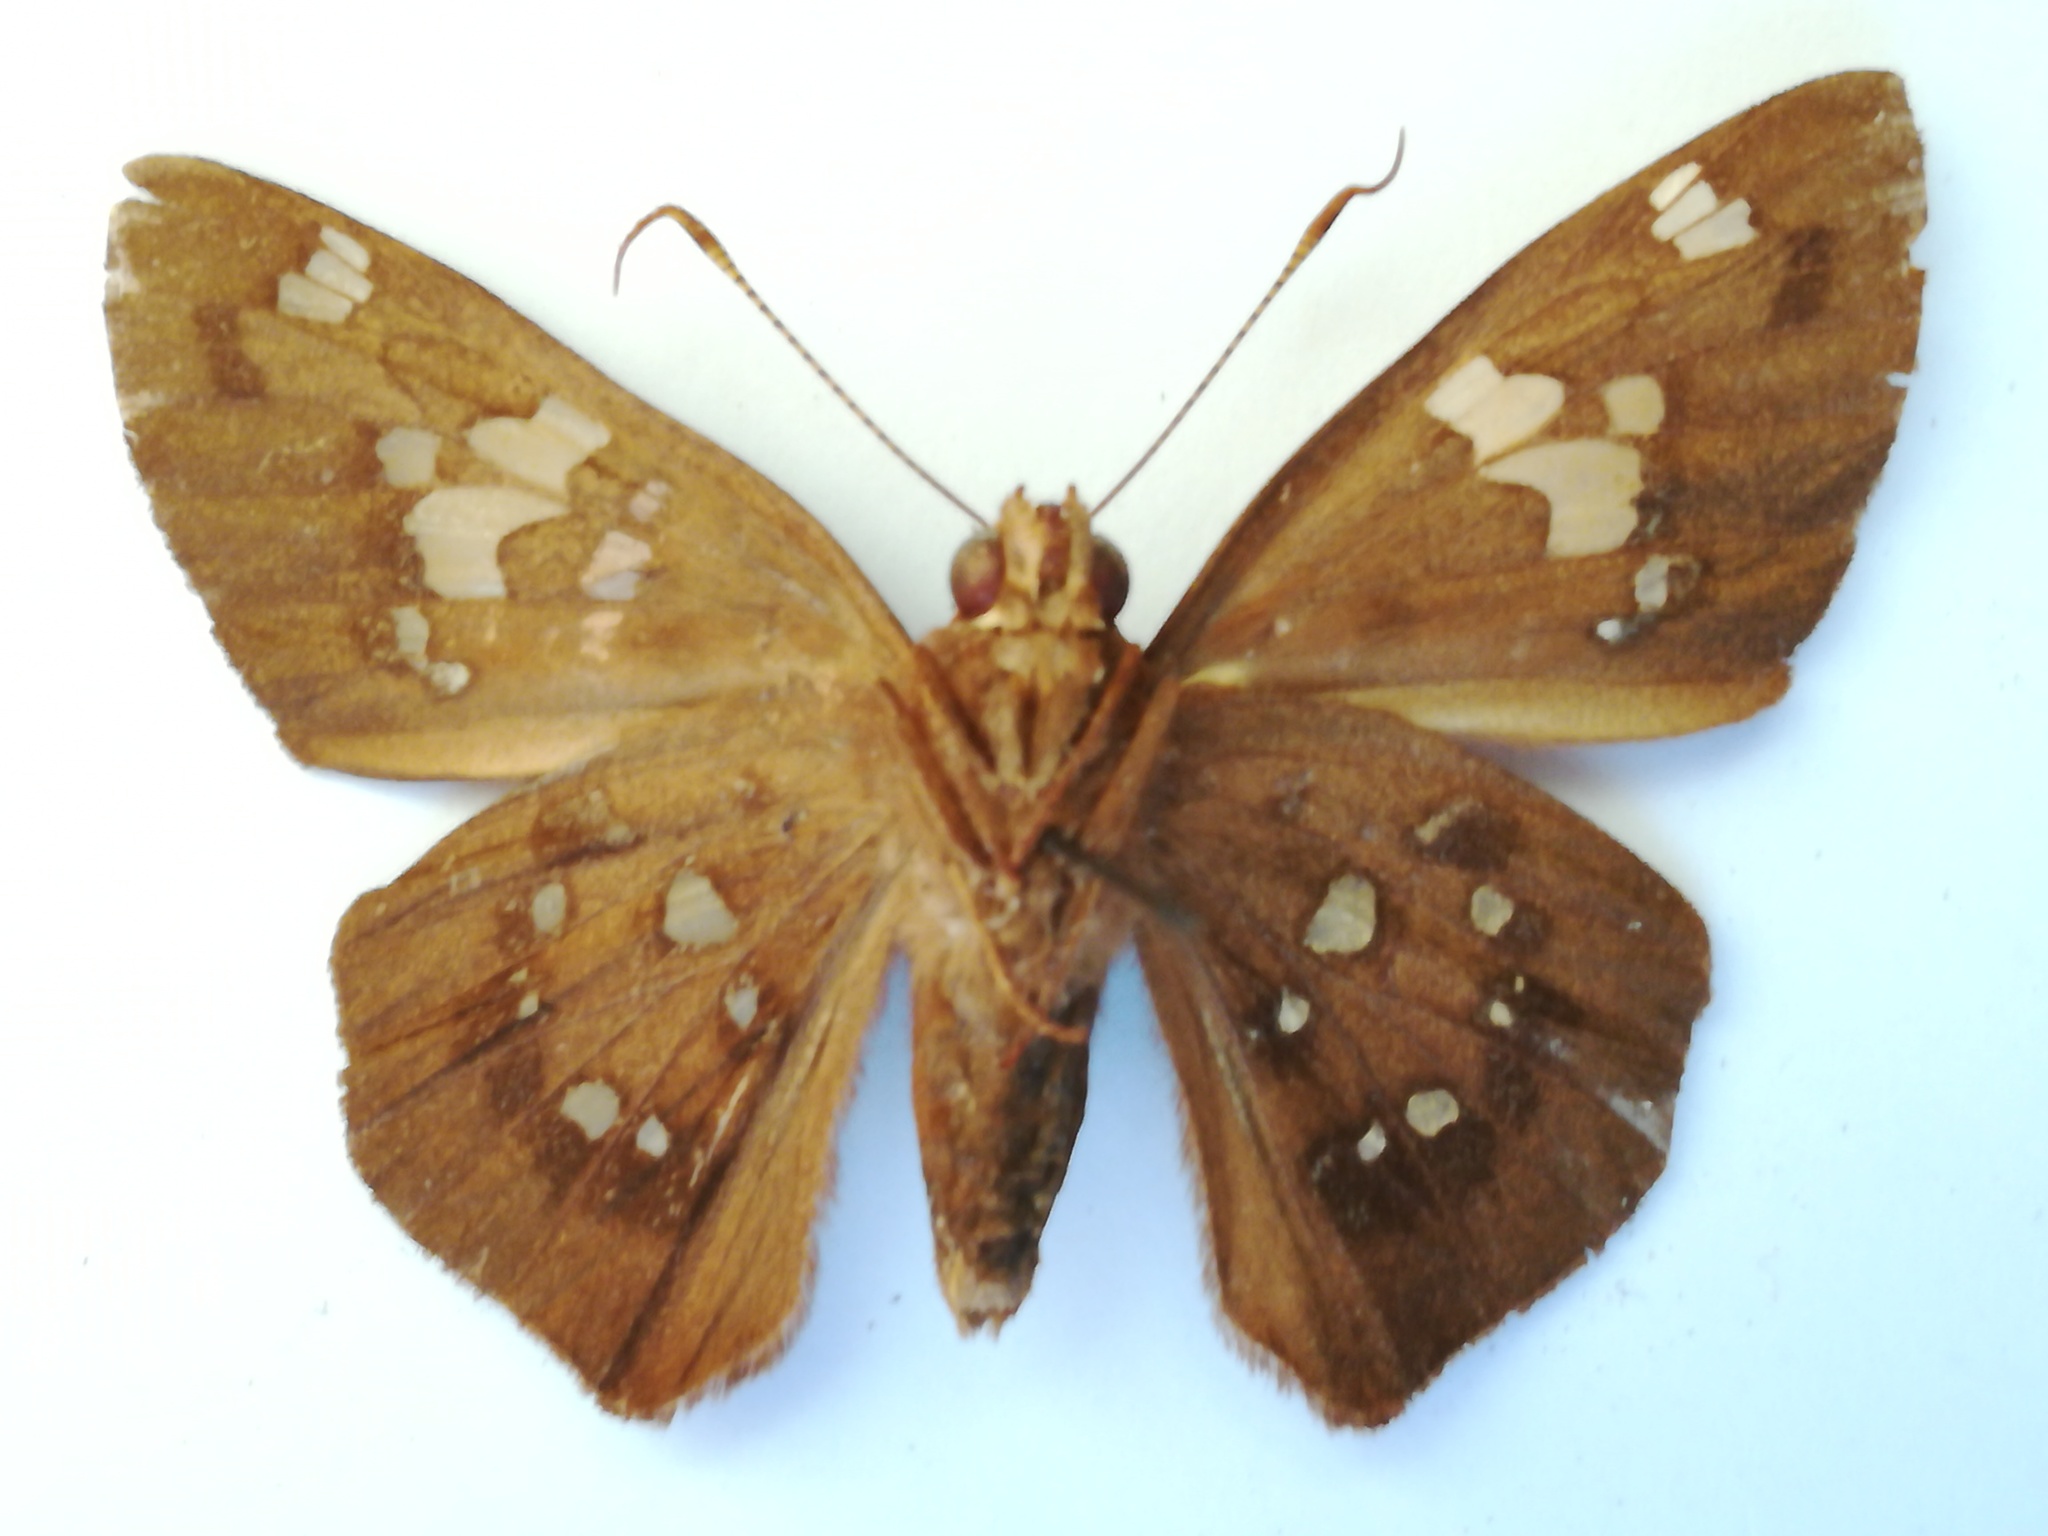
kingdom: Animalia
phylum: Arthropoda
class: Insecta
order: Lepidoptera
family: Hesperiidae
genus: Dyscophellus
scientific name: Dyscophellus porcius
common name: Fiery scarlet-eye
